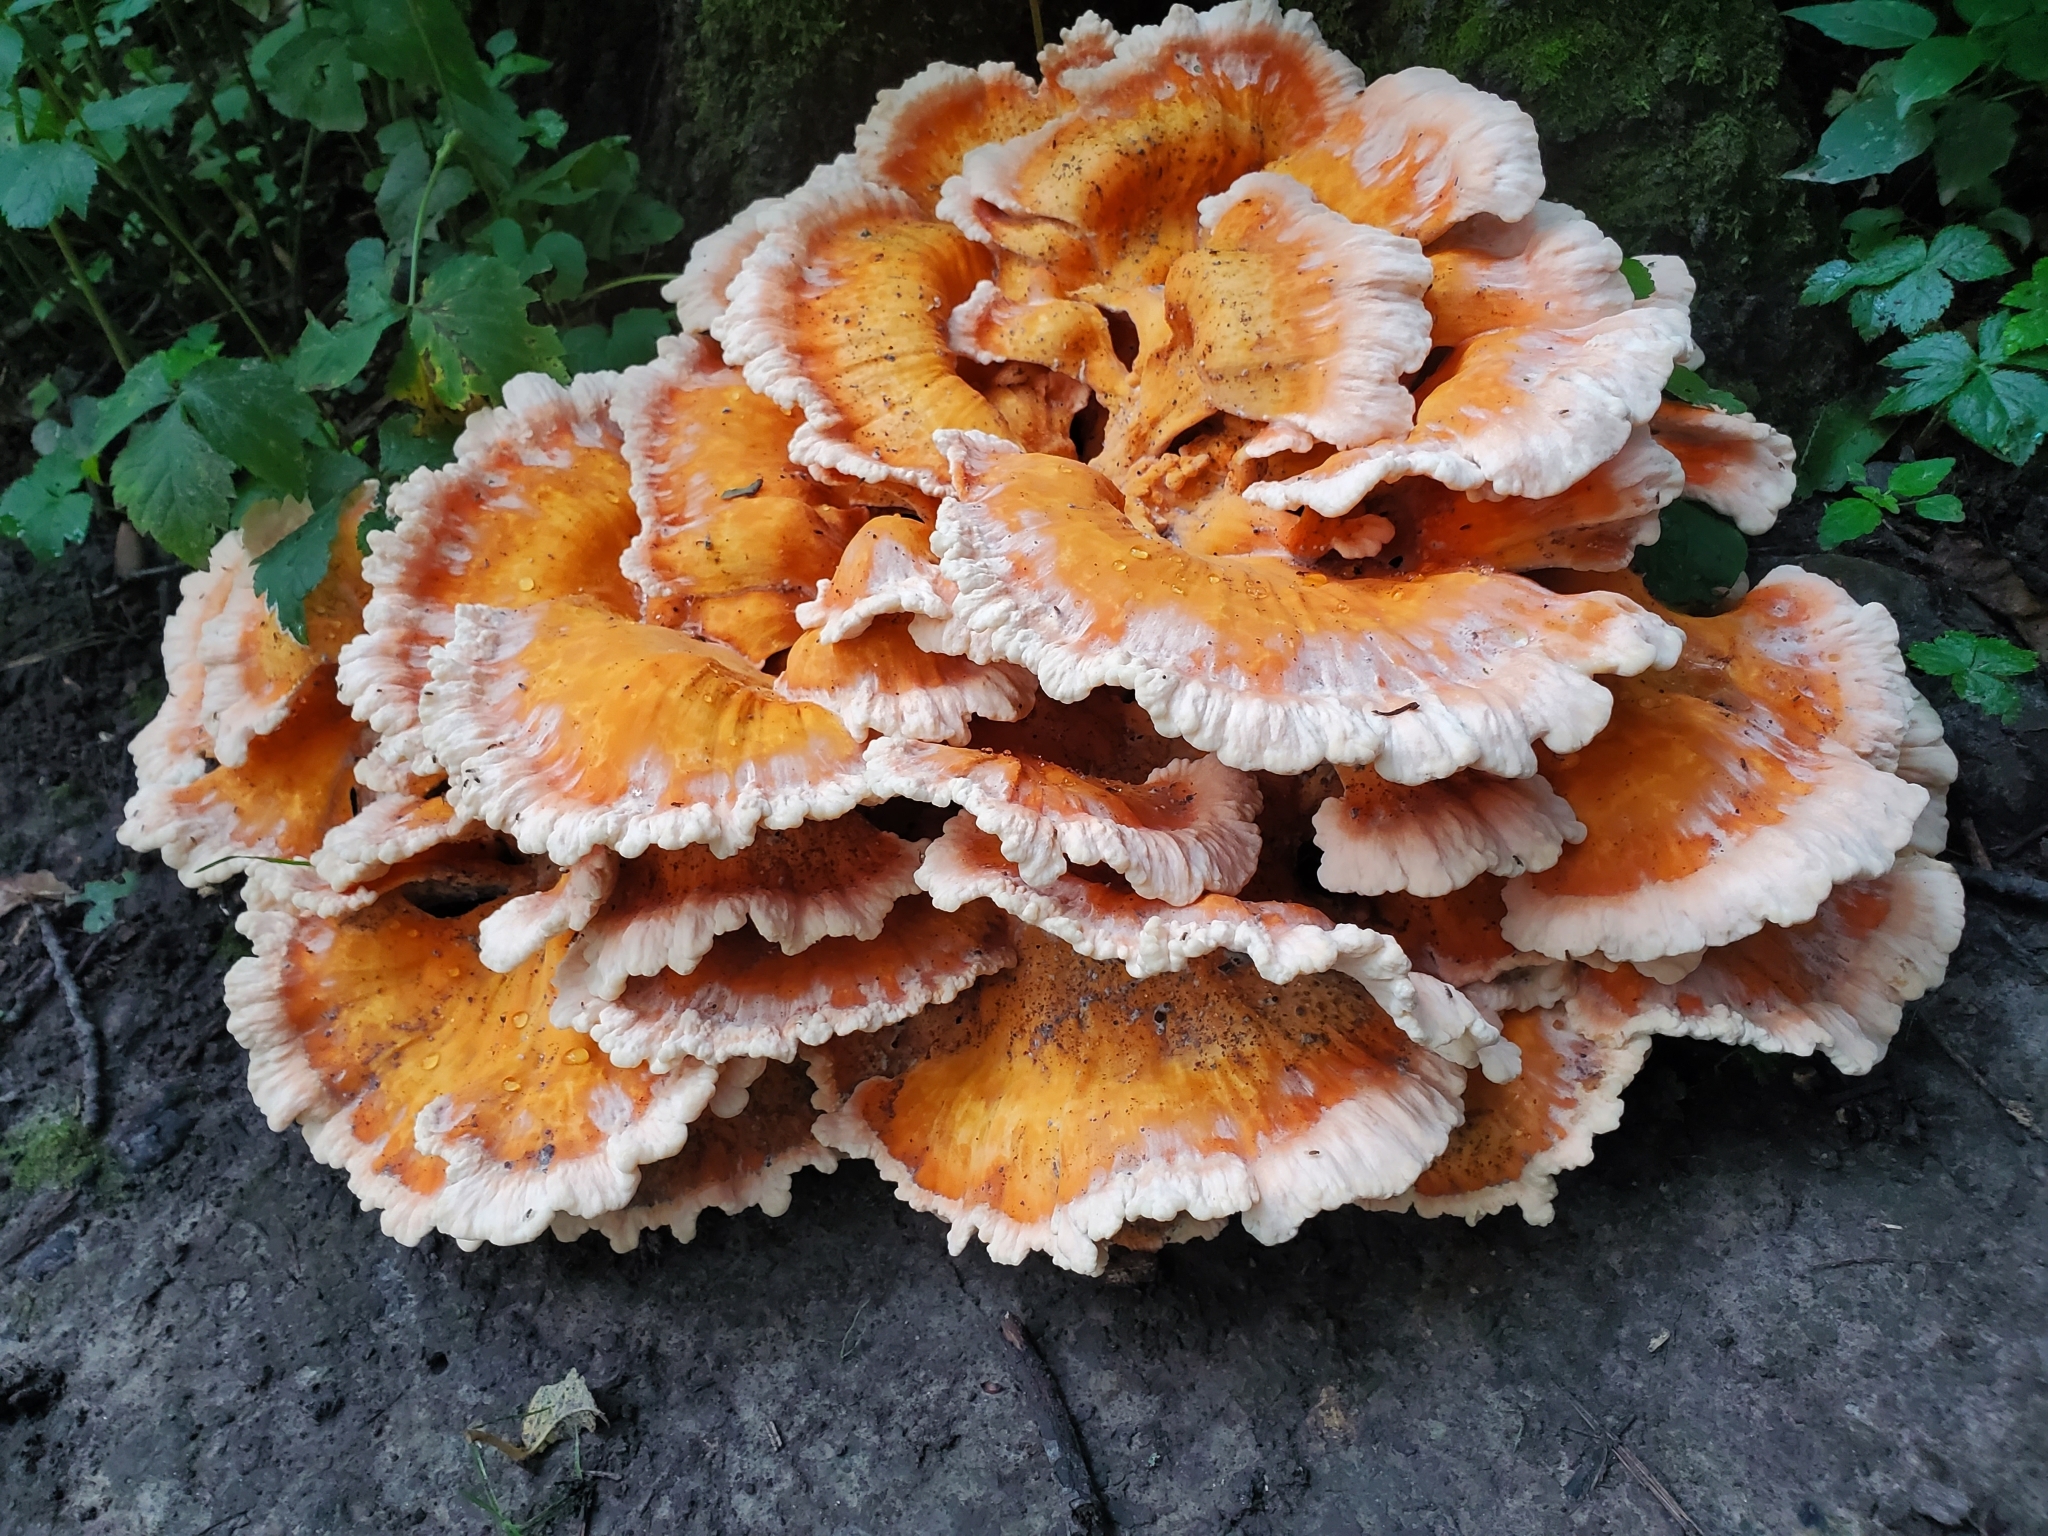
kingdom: Fungi
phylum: Basidiomycota
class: Agaricomycetes
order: Polyporales
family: Laetiporaceae
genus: Laetiporus
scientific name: Laetiporus sulphureus
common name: Chicken of the woods
